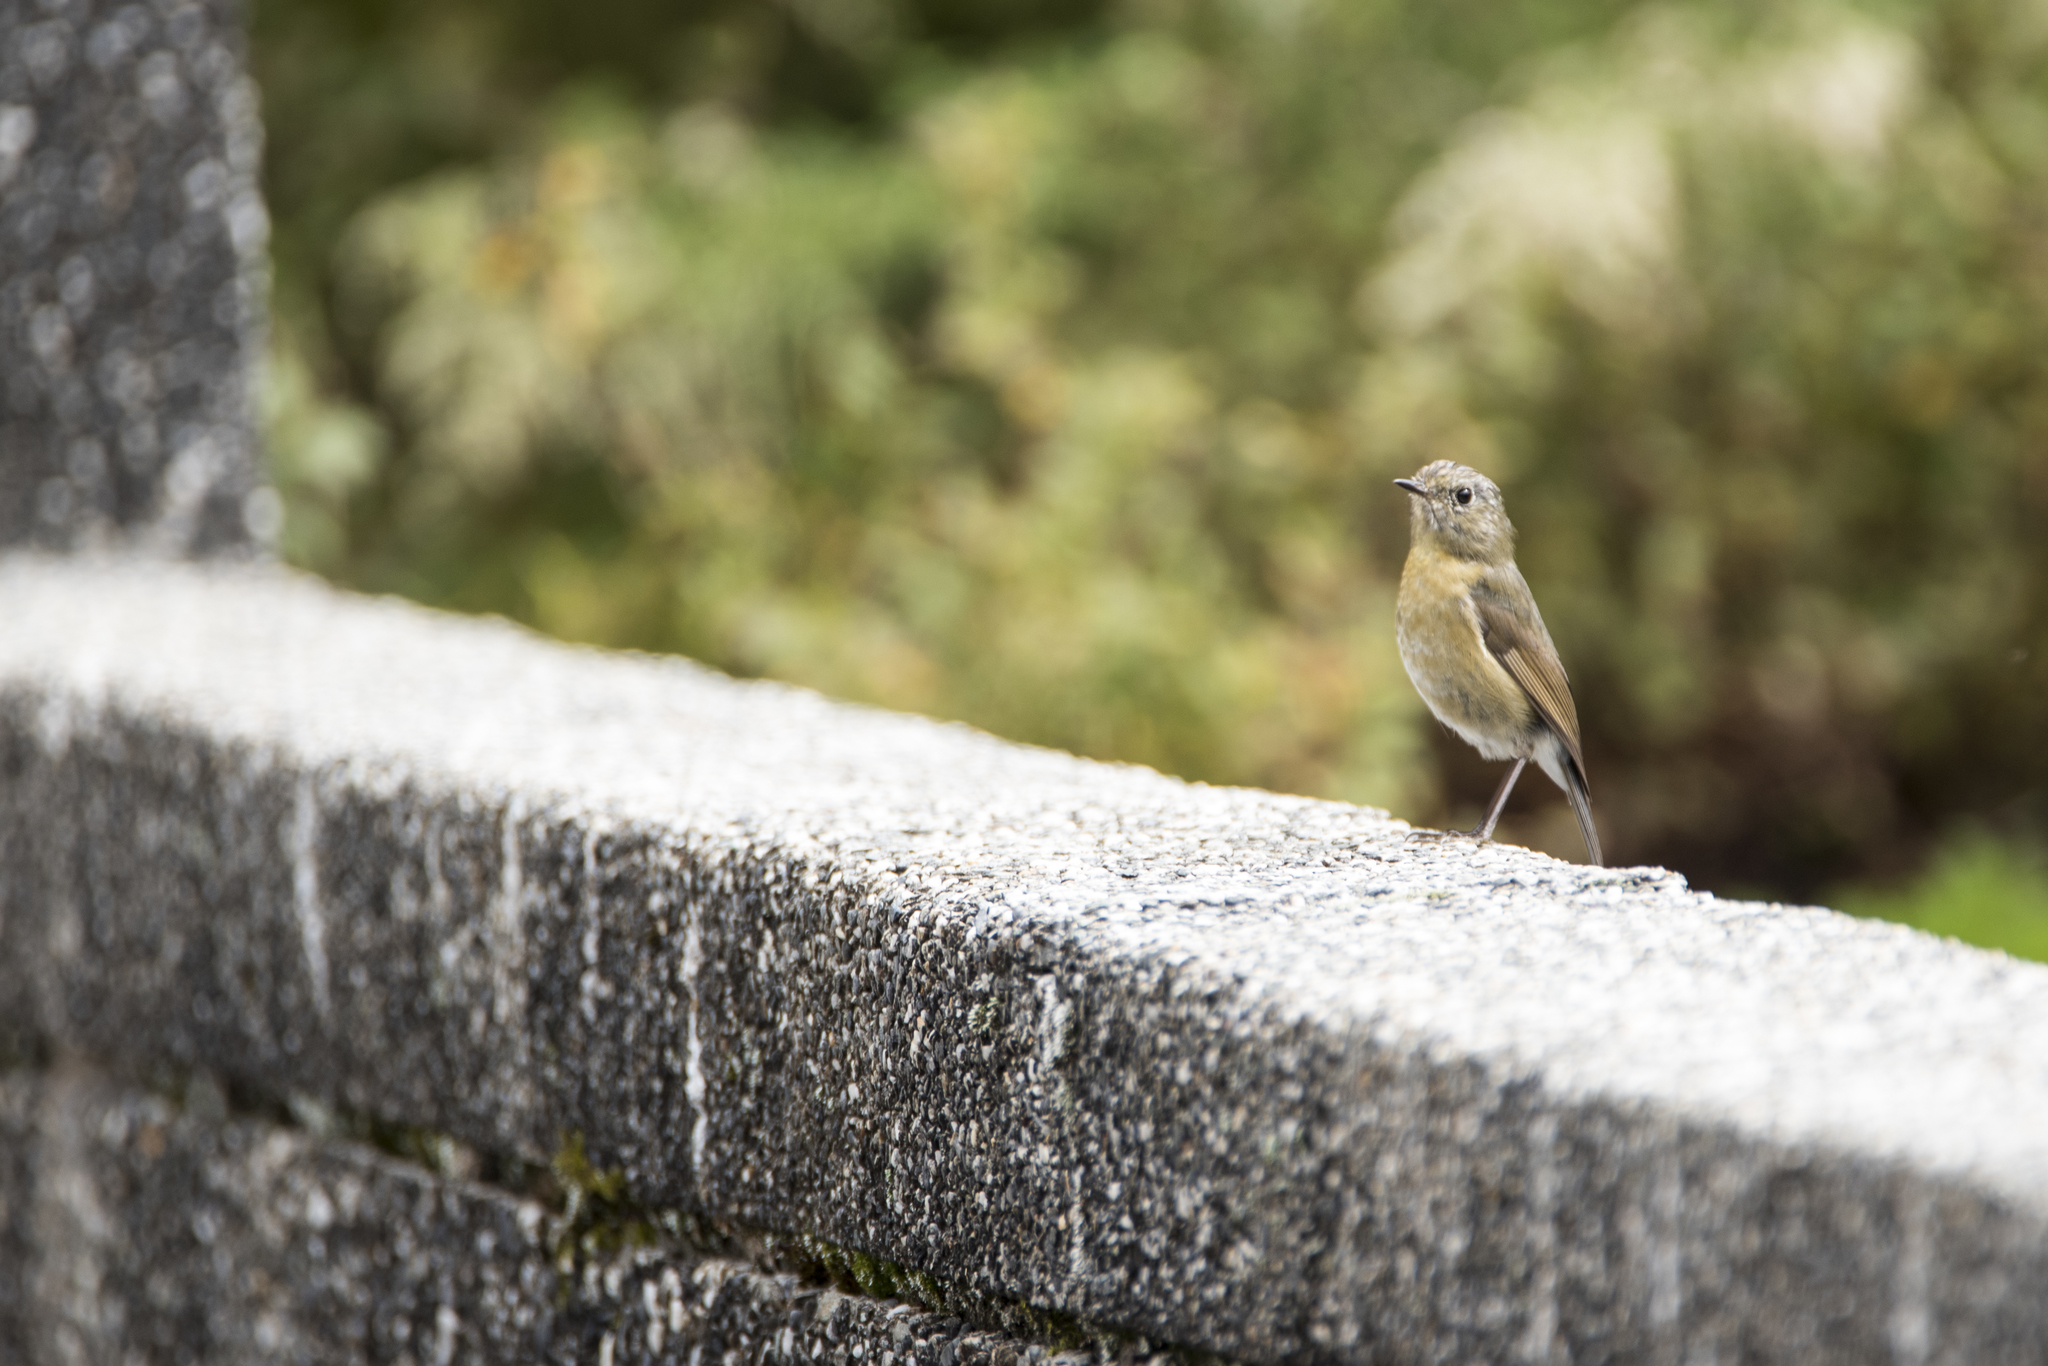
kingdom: Animalia
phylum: Chordata
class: Aves
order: Passeriformes
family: Muscicapidae
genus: Tarsiger
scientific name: Tarsiger johnstoniae
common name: Collared bush robin
